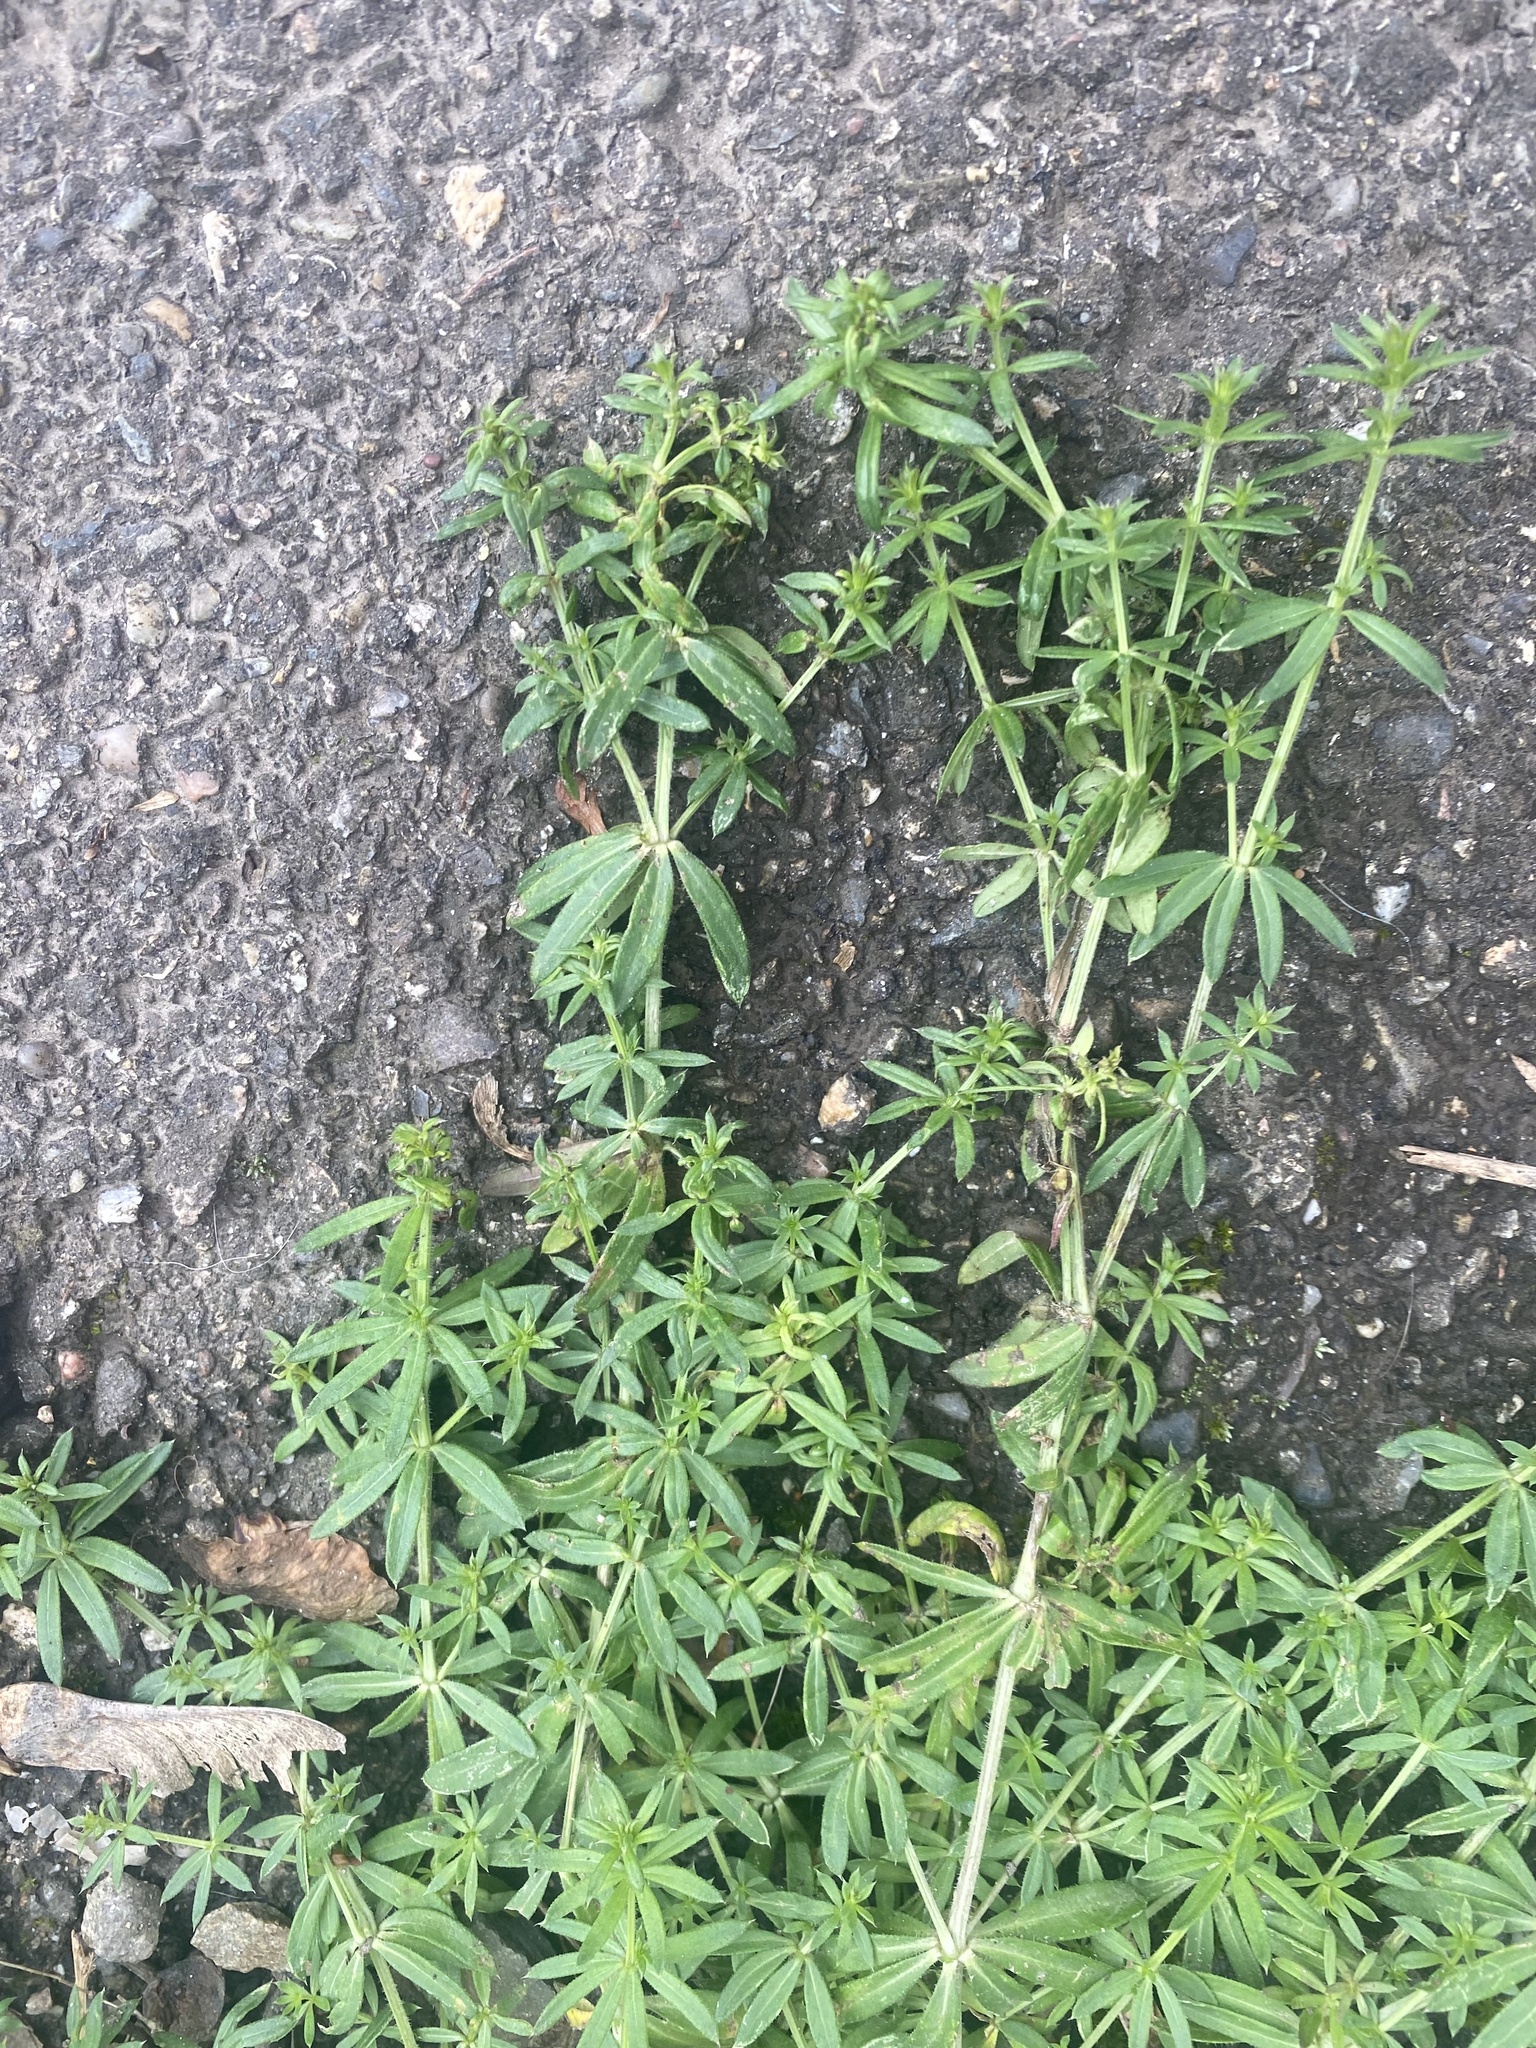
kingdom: Plantae
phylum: Tracheophyta
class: Magnoliopsida
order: Gentianales
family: Rubiaceae
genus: Galium
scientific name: Galium humifusum
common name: Spreading bedstraw
